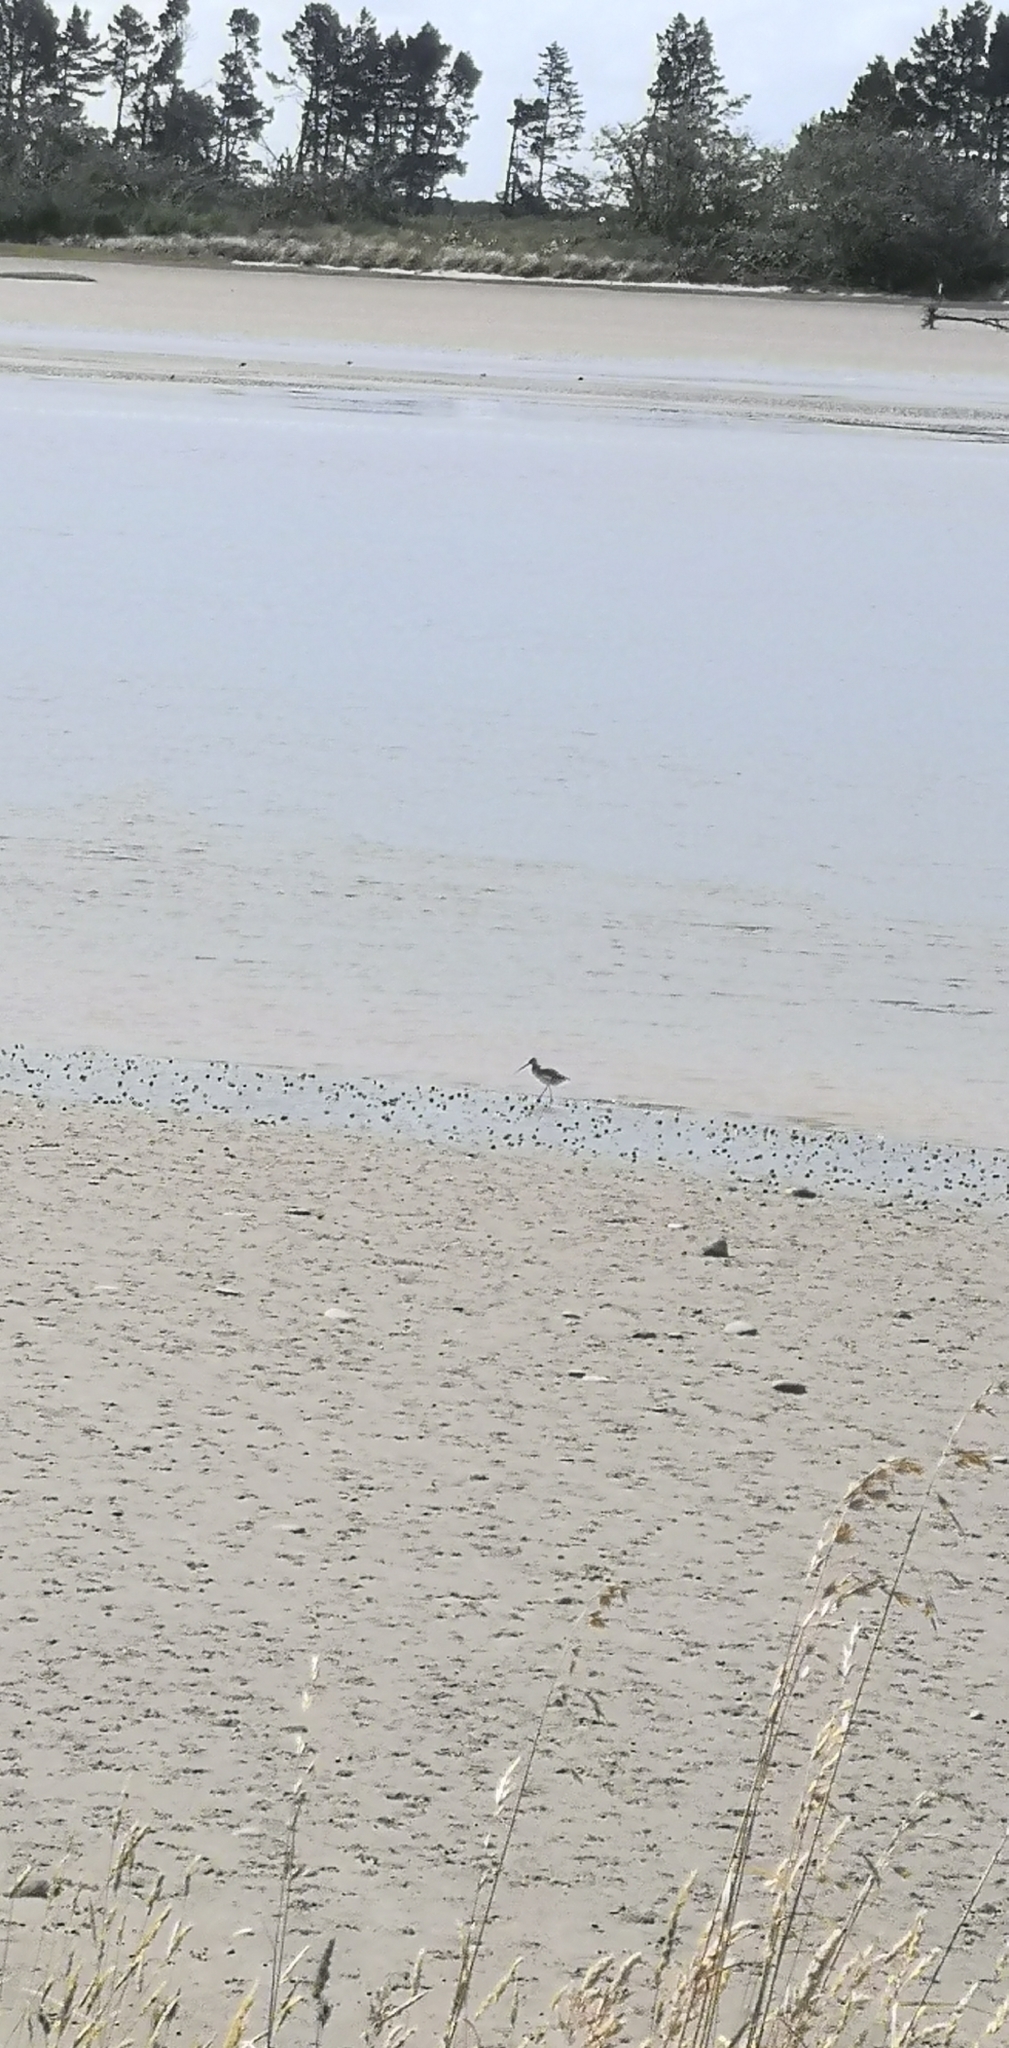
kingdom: Animalia
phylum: Chordata
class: Aves
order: Charadriiformes
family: Scolopacidae
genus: Limosa
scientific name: Limosa lapponica
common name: Bar-tailed godwit
